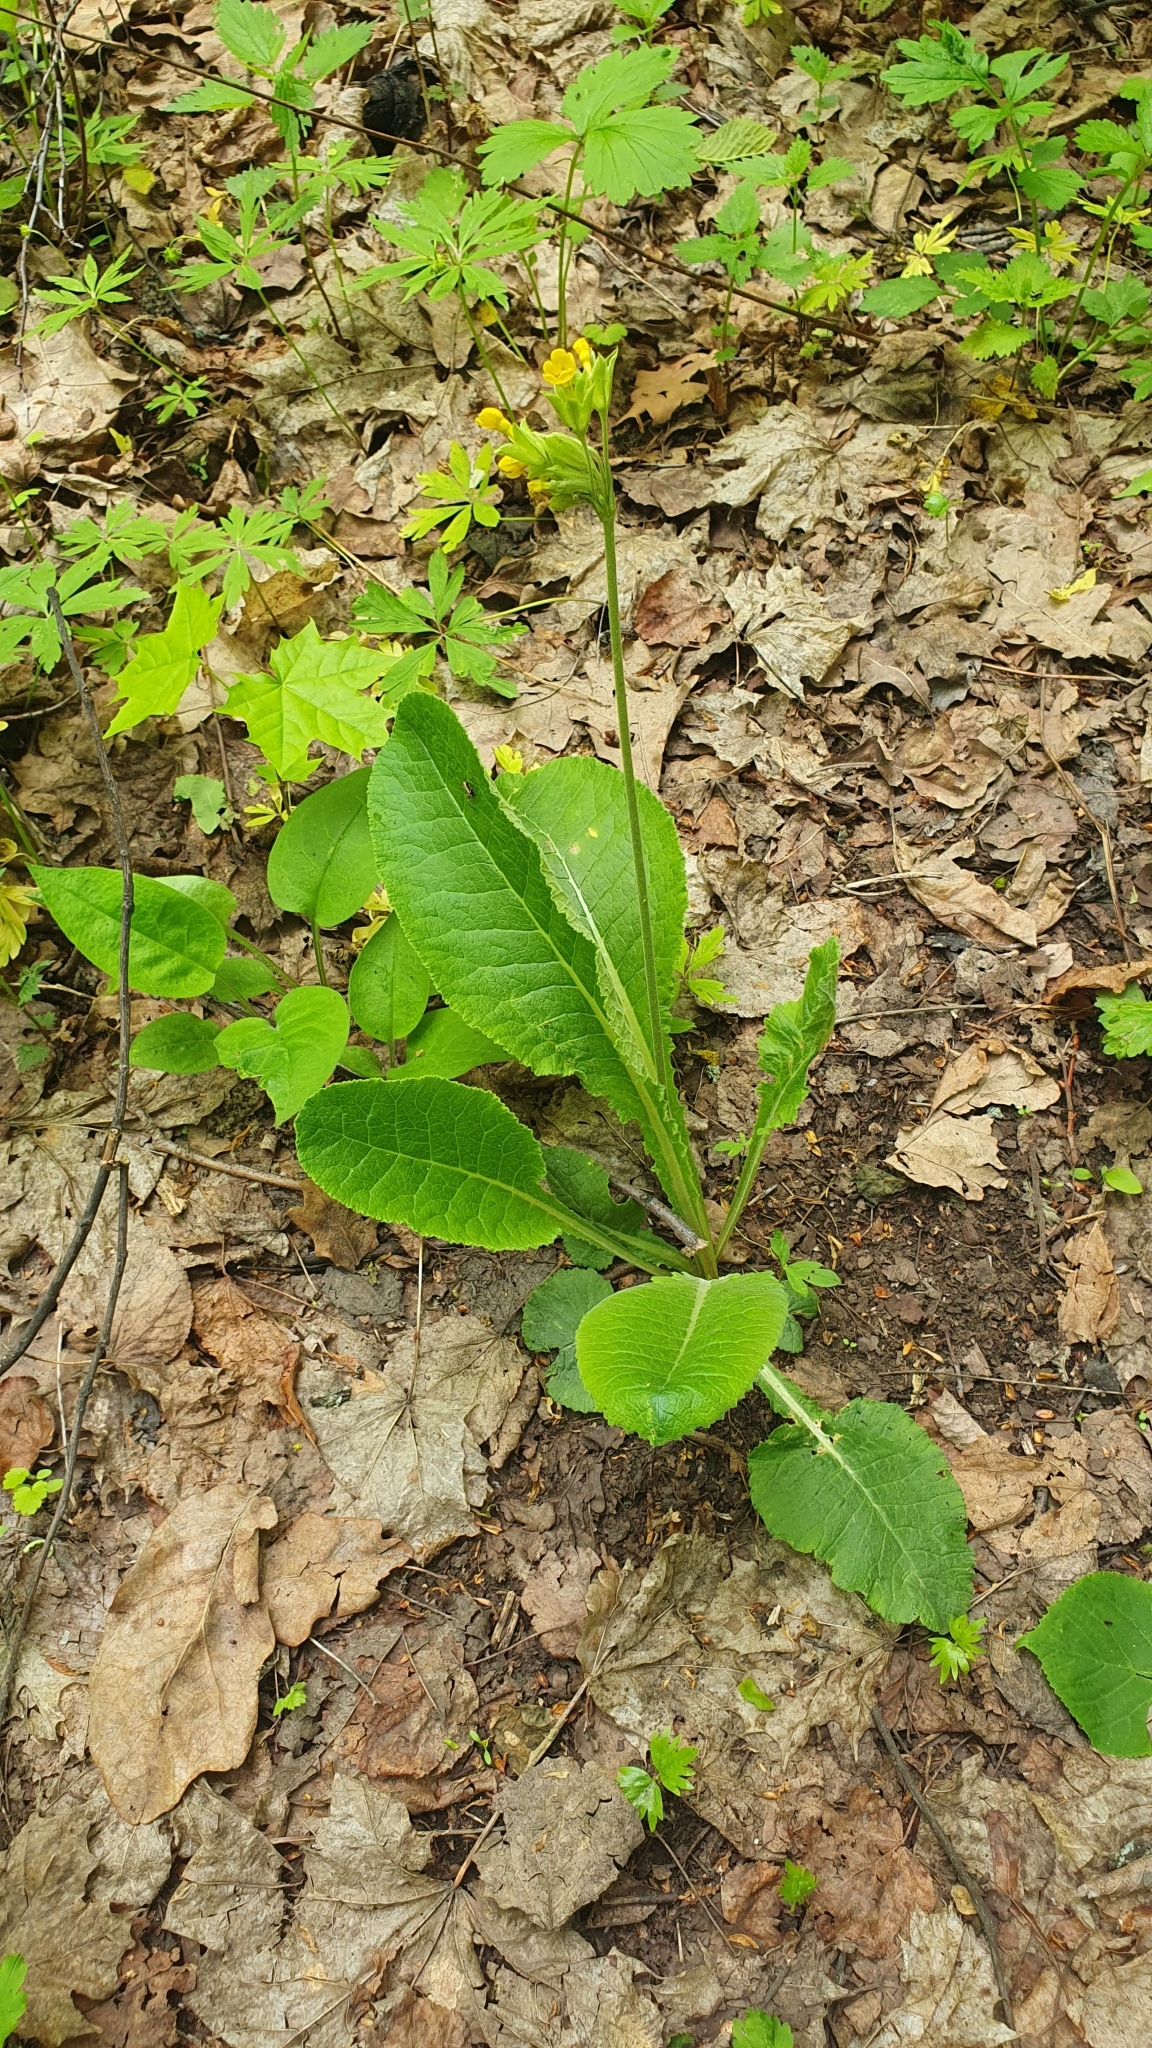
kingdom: Plantae
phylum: Tracheophyta
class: Magnoliopsida
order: Ericales
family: Primulaceae
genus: Primula
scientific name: Primula veris
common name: Cowslip
